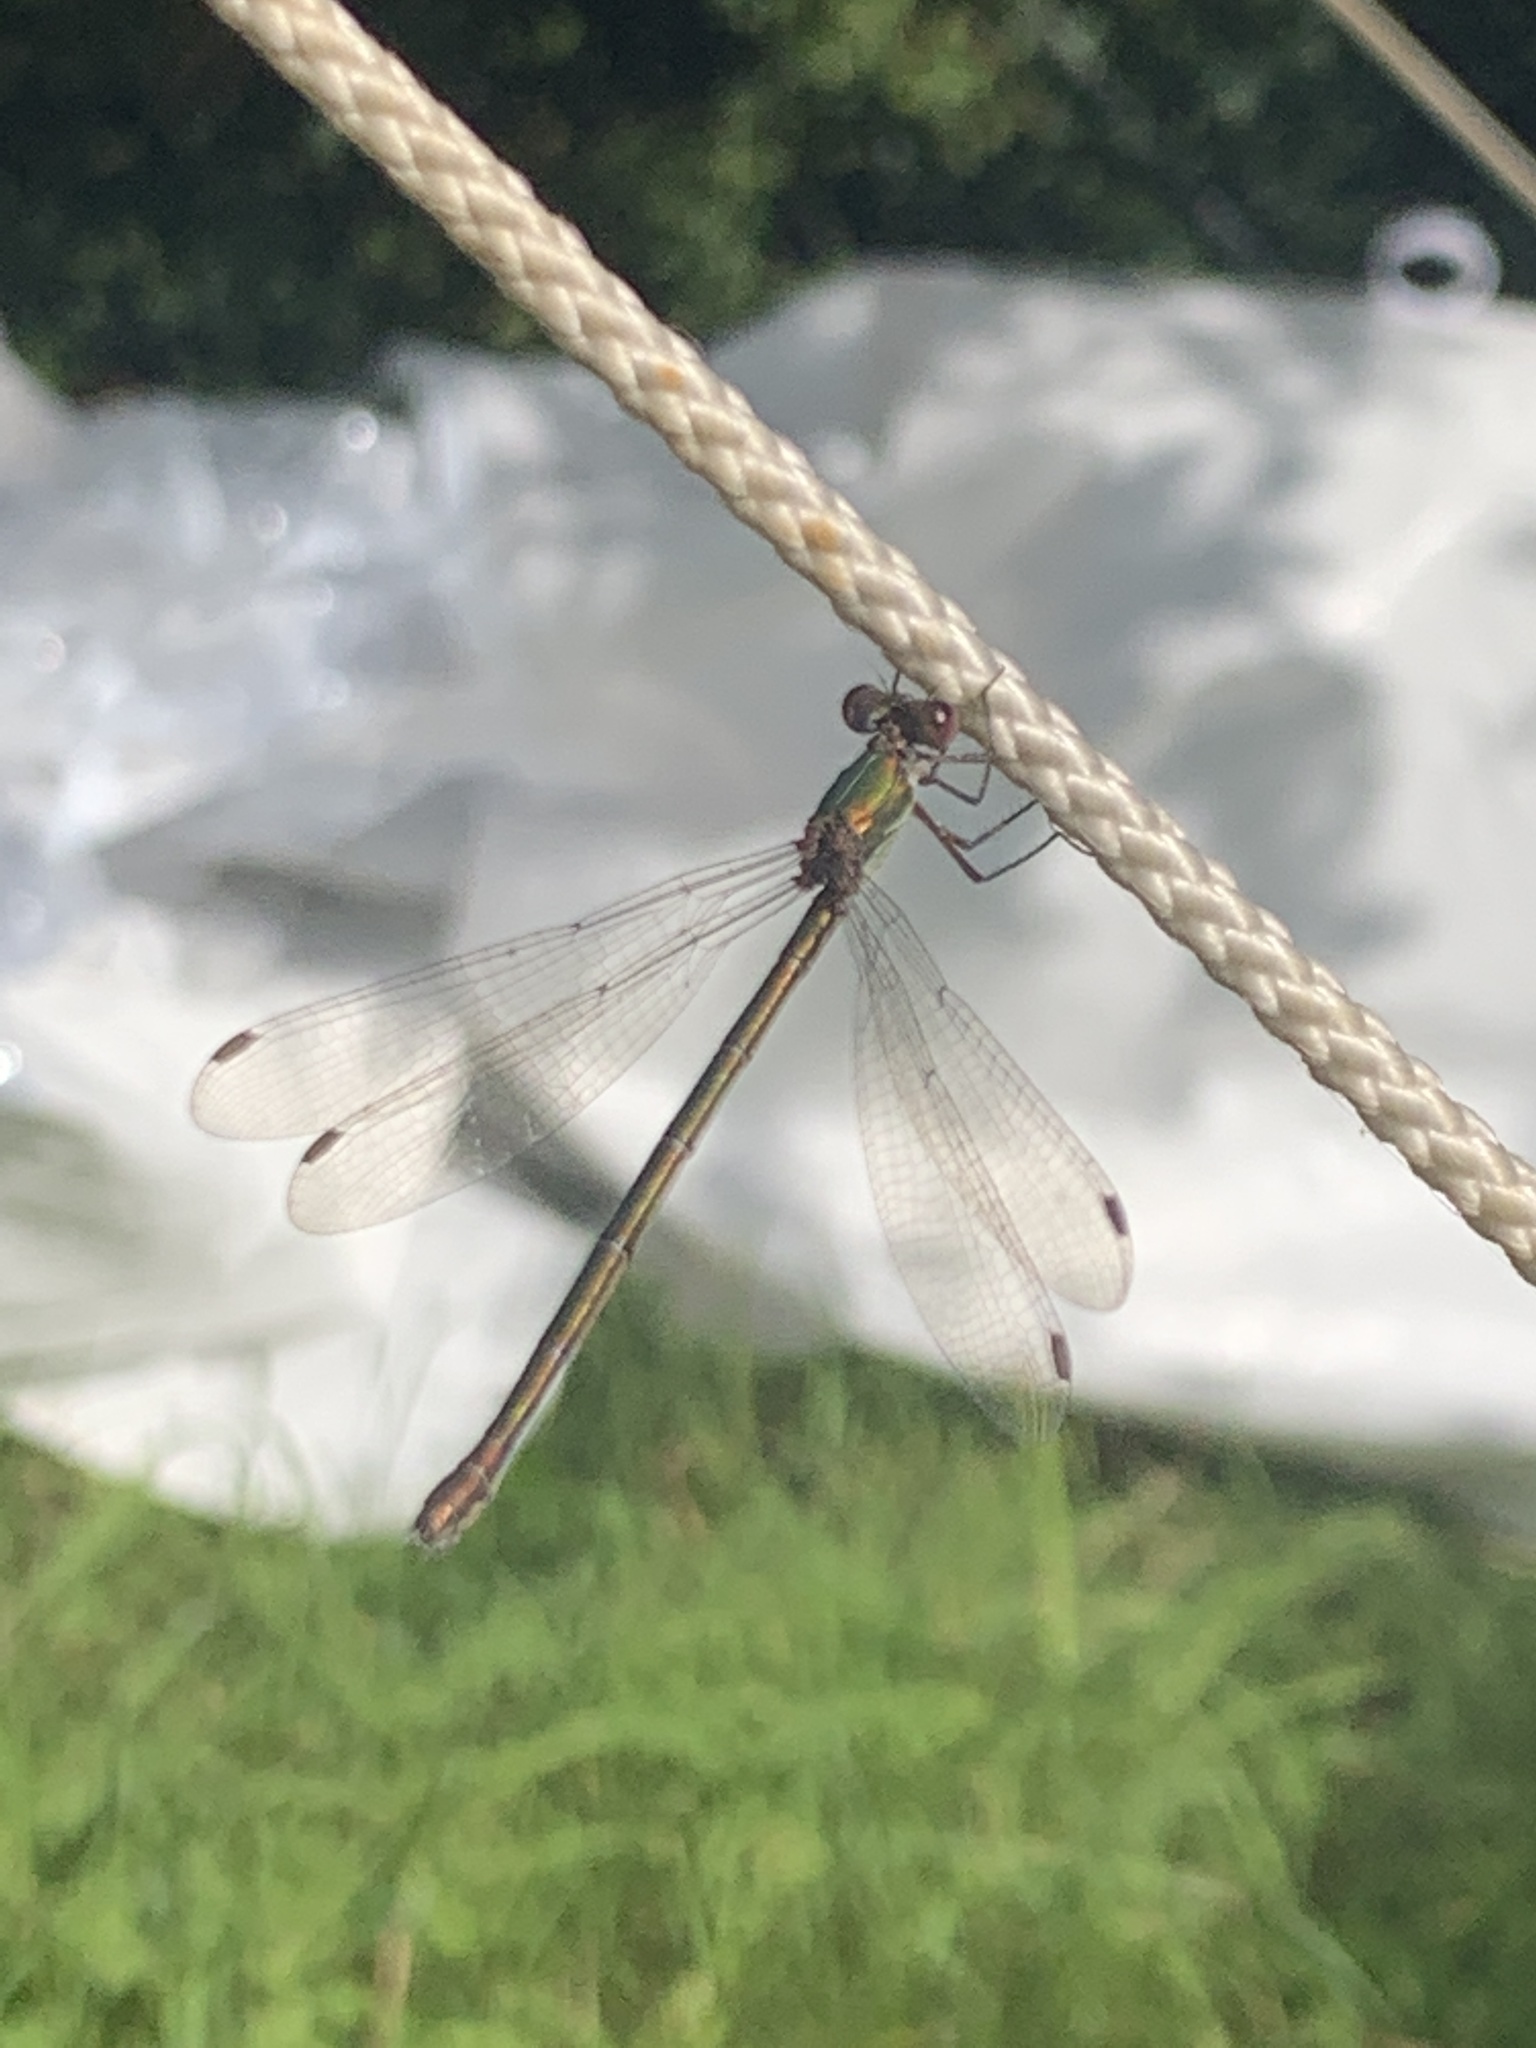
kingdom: Animalia
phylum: Arthropoda
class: Insecta
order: Odonata
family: Lestidae
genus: Chalcolestes
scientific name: Chalcolestes viridis
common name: Green emerald damselfly
